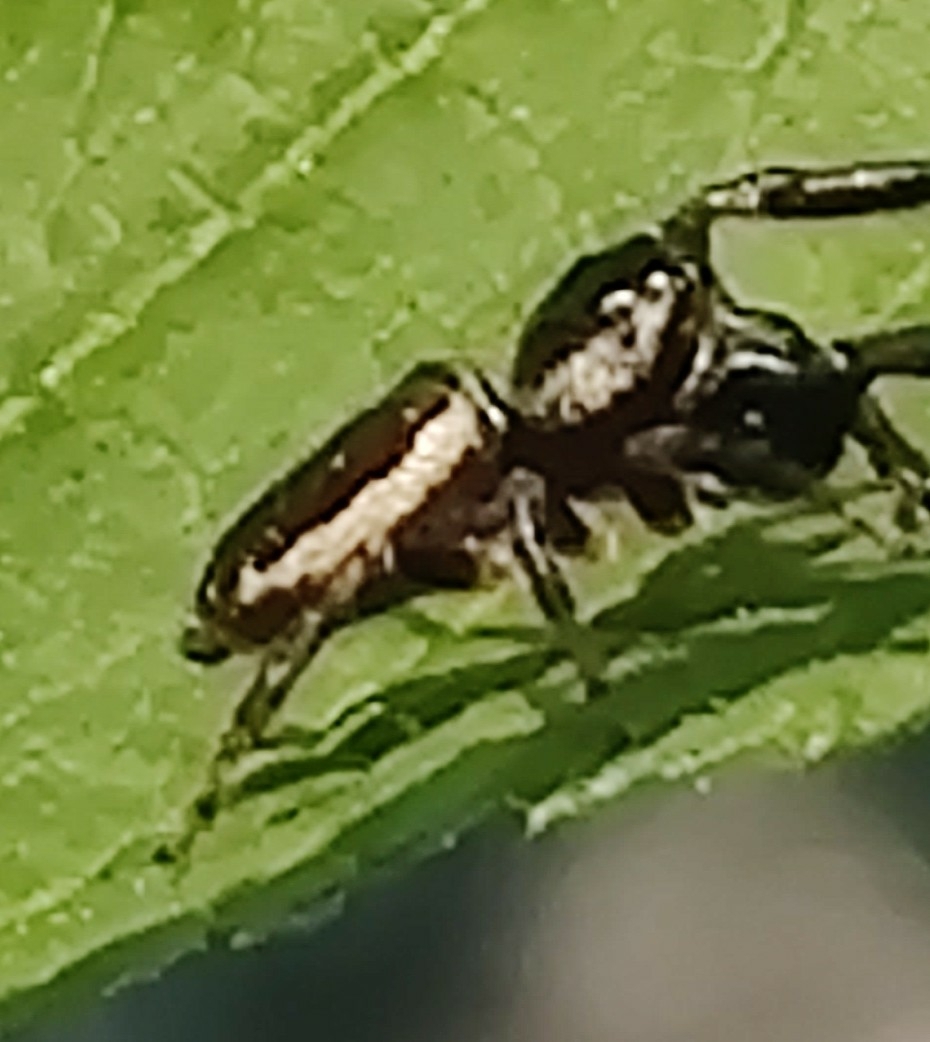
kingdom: Animalia
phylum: Arthropoda
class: Arachnida
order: Araneae
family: Salticidae
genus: Eris
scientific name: Eris militaris
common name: Bronze jumper
